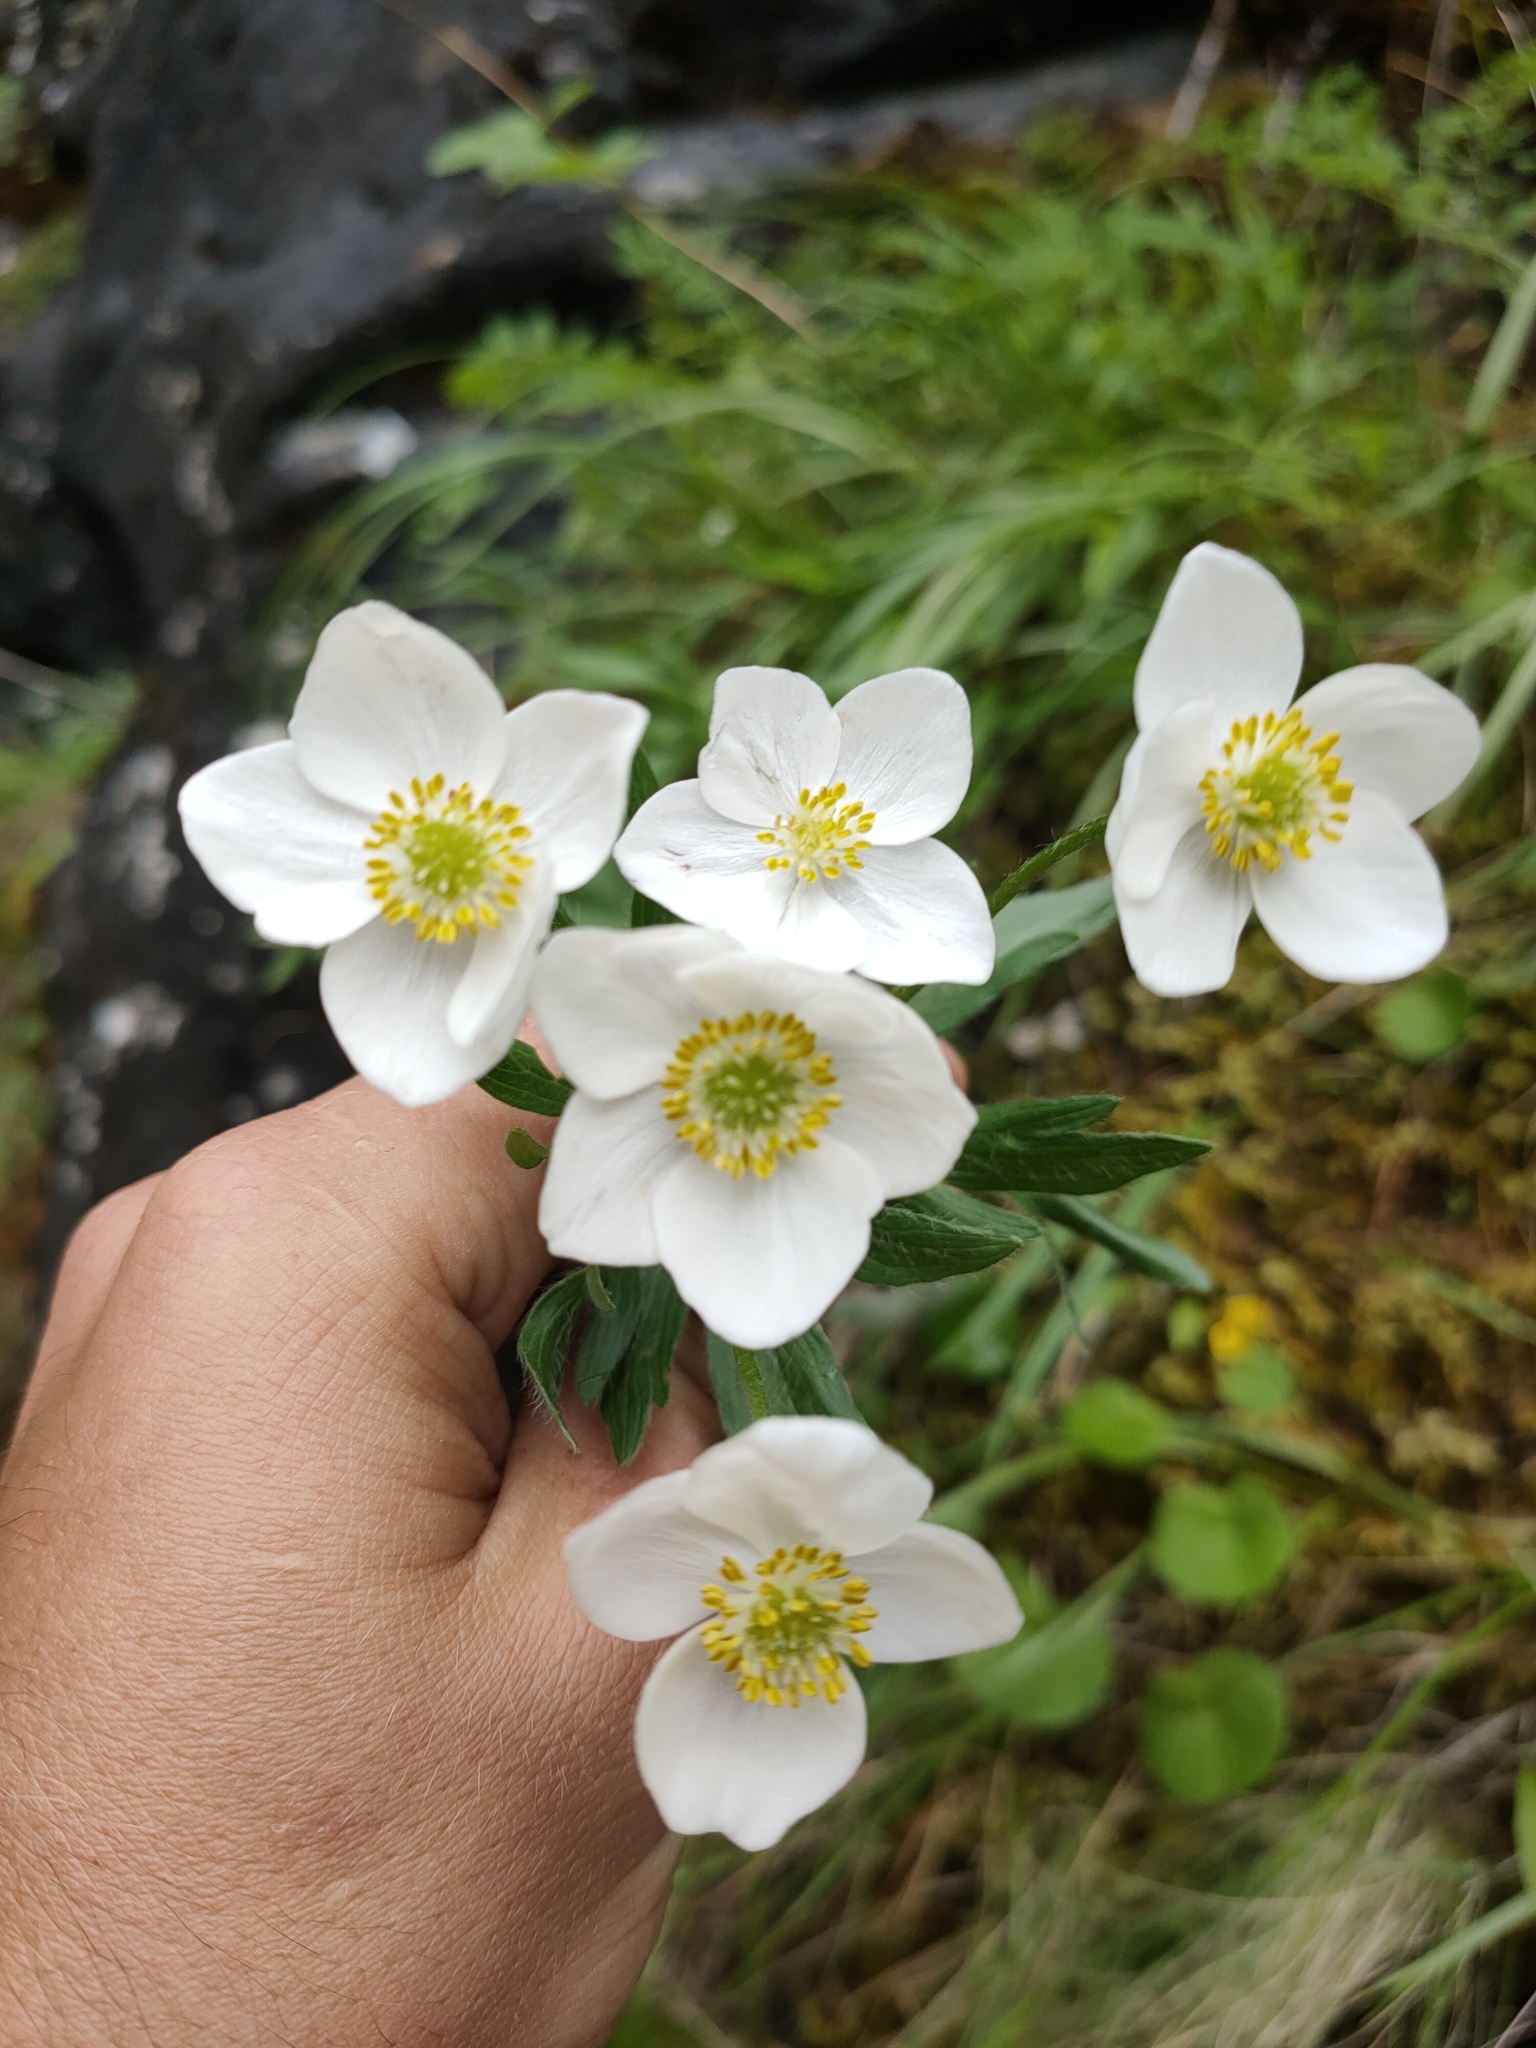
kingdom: Plantae
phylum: Tracheophyta
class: Magnoliopsida
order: Ranunculales
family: Ranunculaceae
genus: Anemonastrum
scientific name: Anemonastrum narcissiflorum
